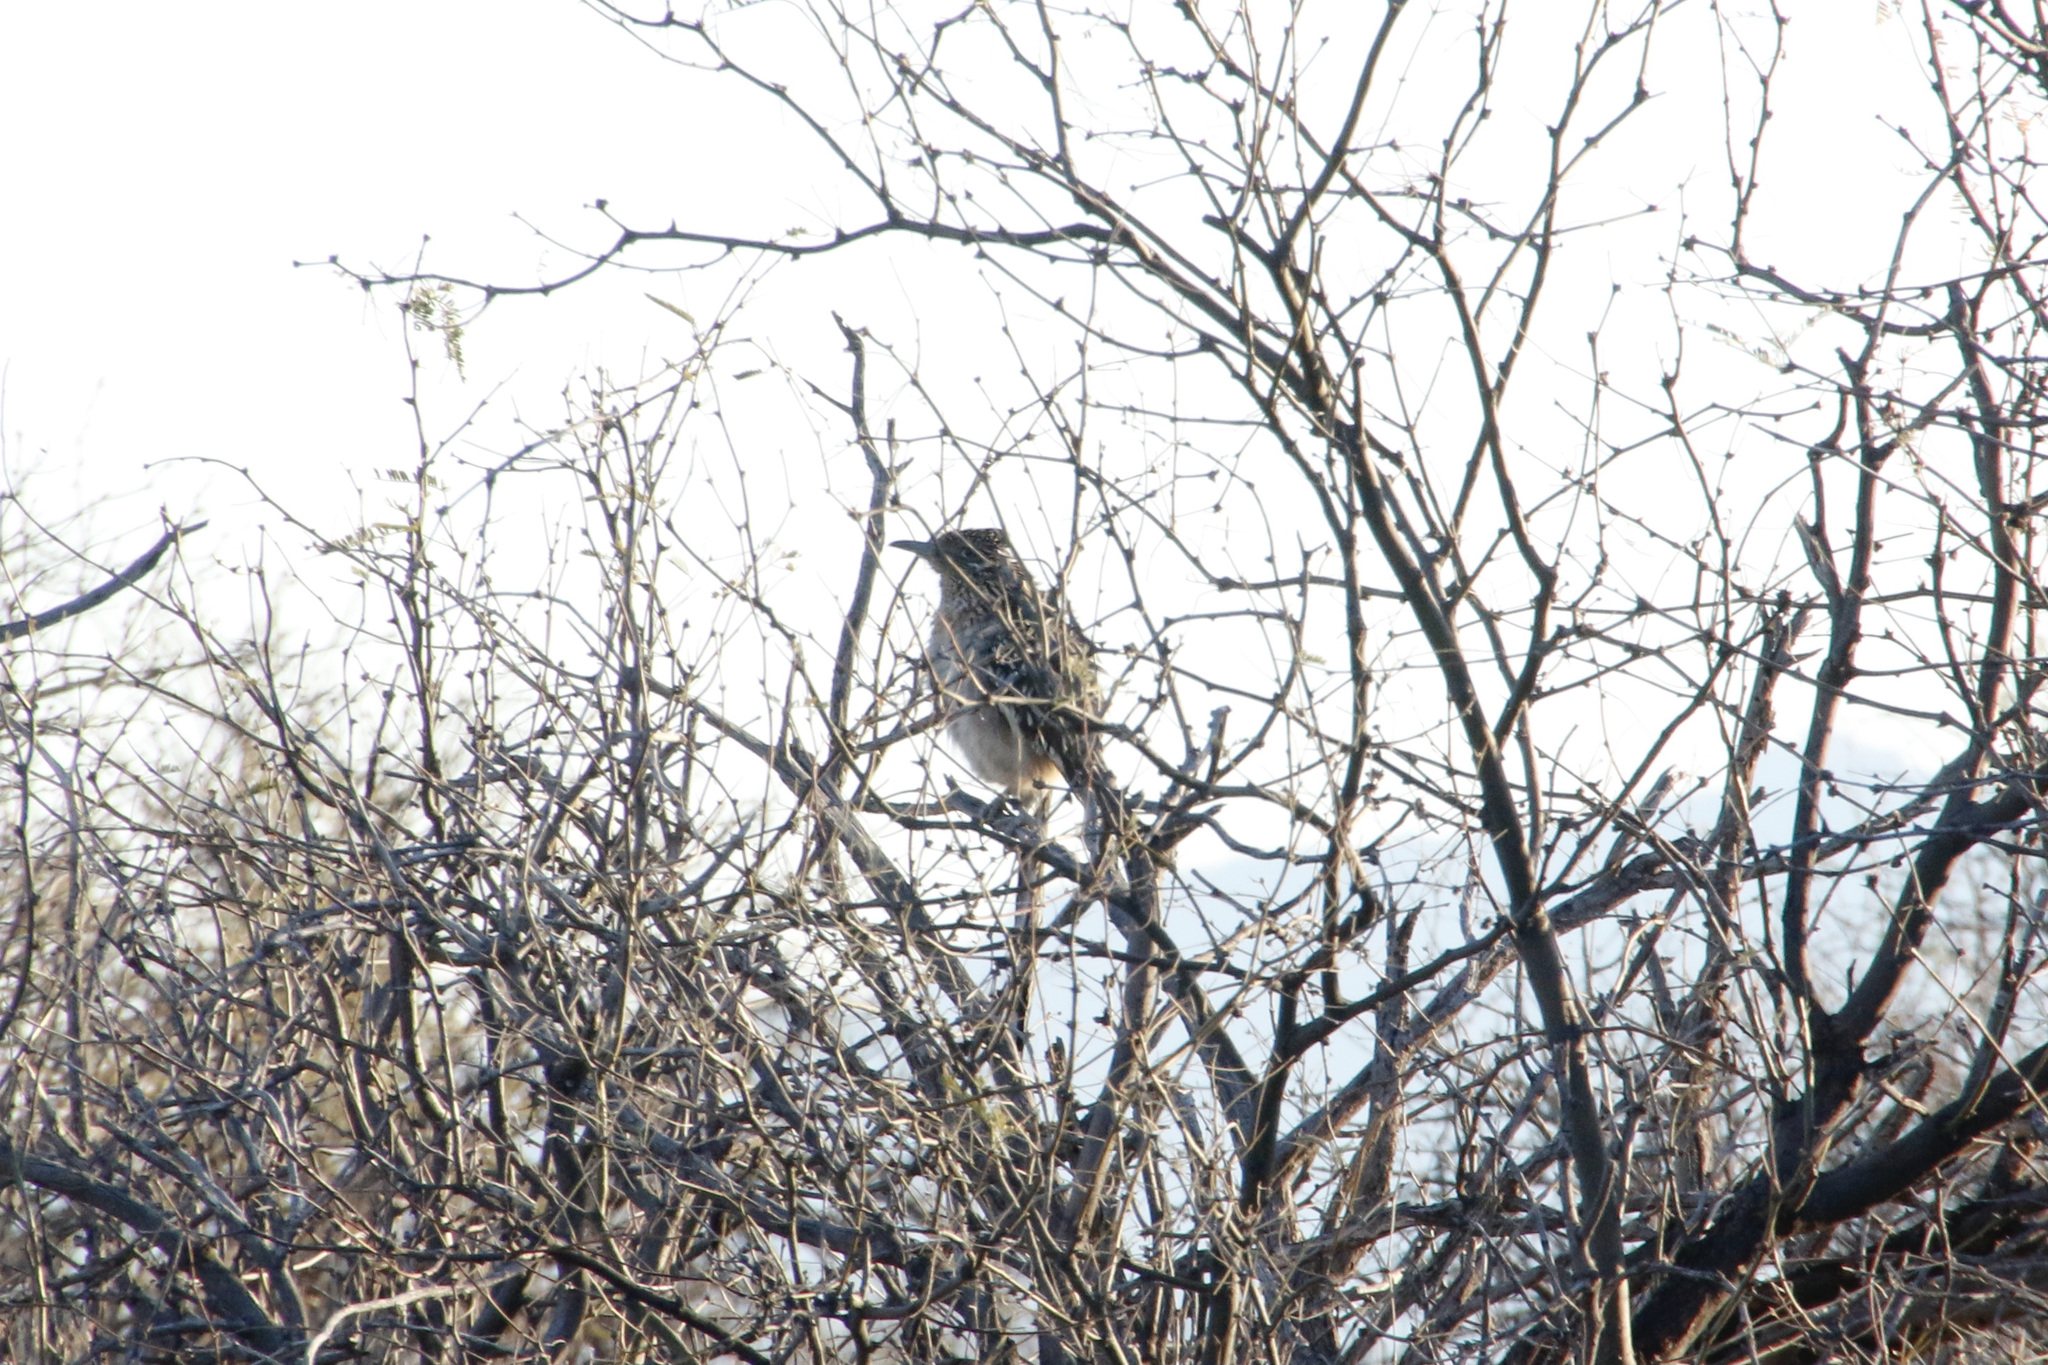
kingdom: Animalia
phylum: Chordata
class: Aves
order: Cuculiformes
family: Cuculidae
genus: Geococcyx
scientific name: Geococcyx californianus
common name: Greater roadrunner
